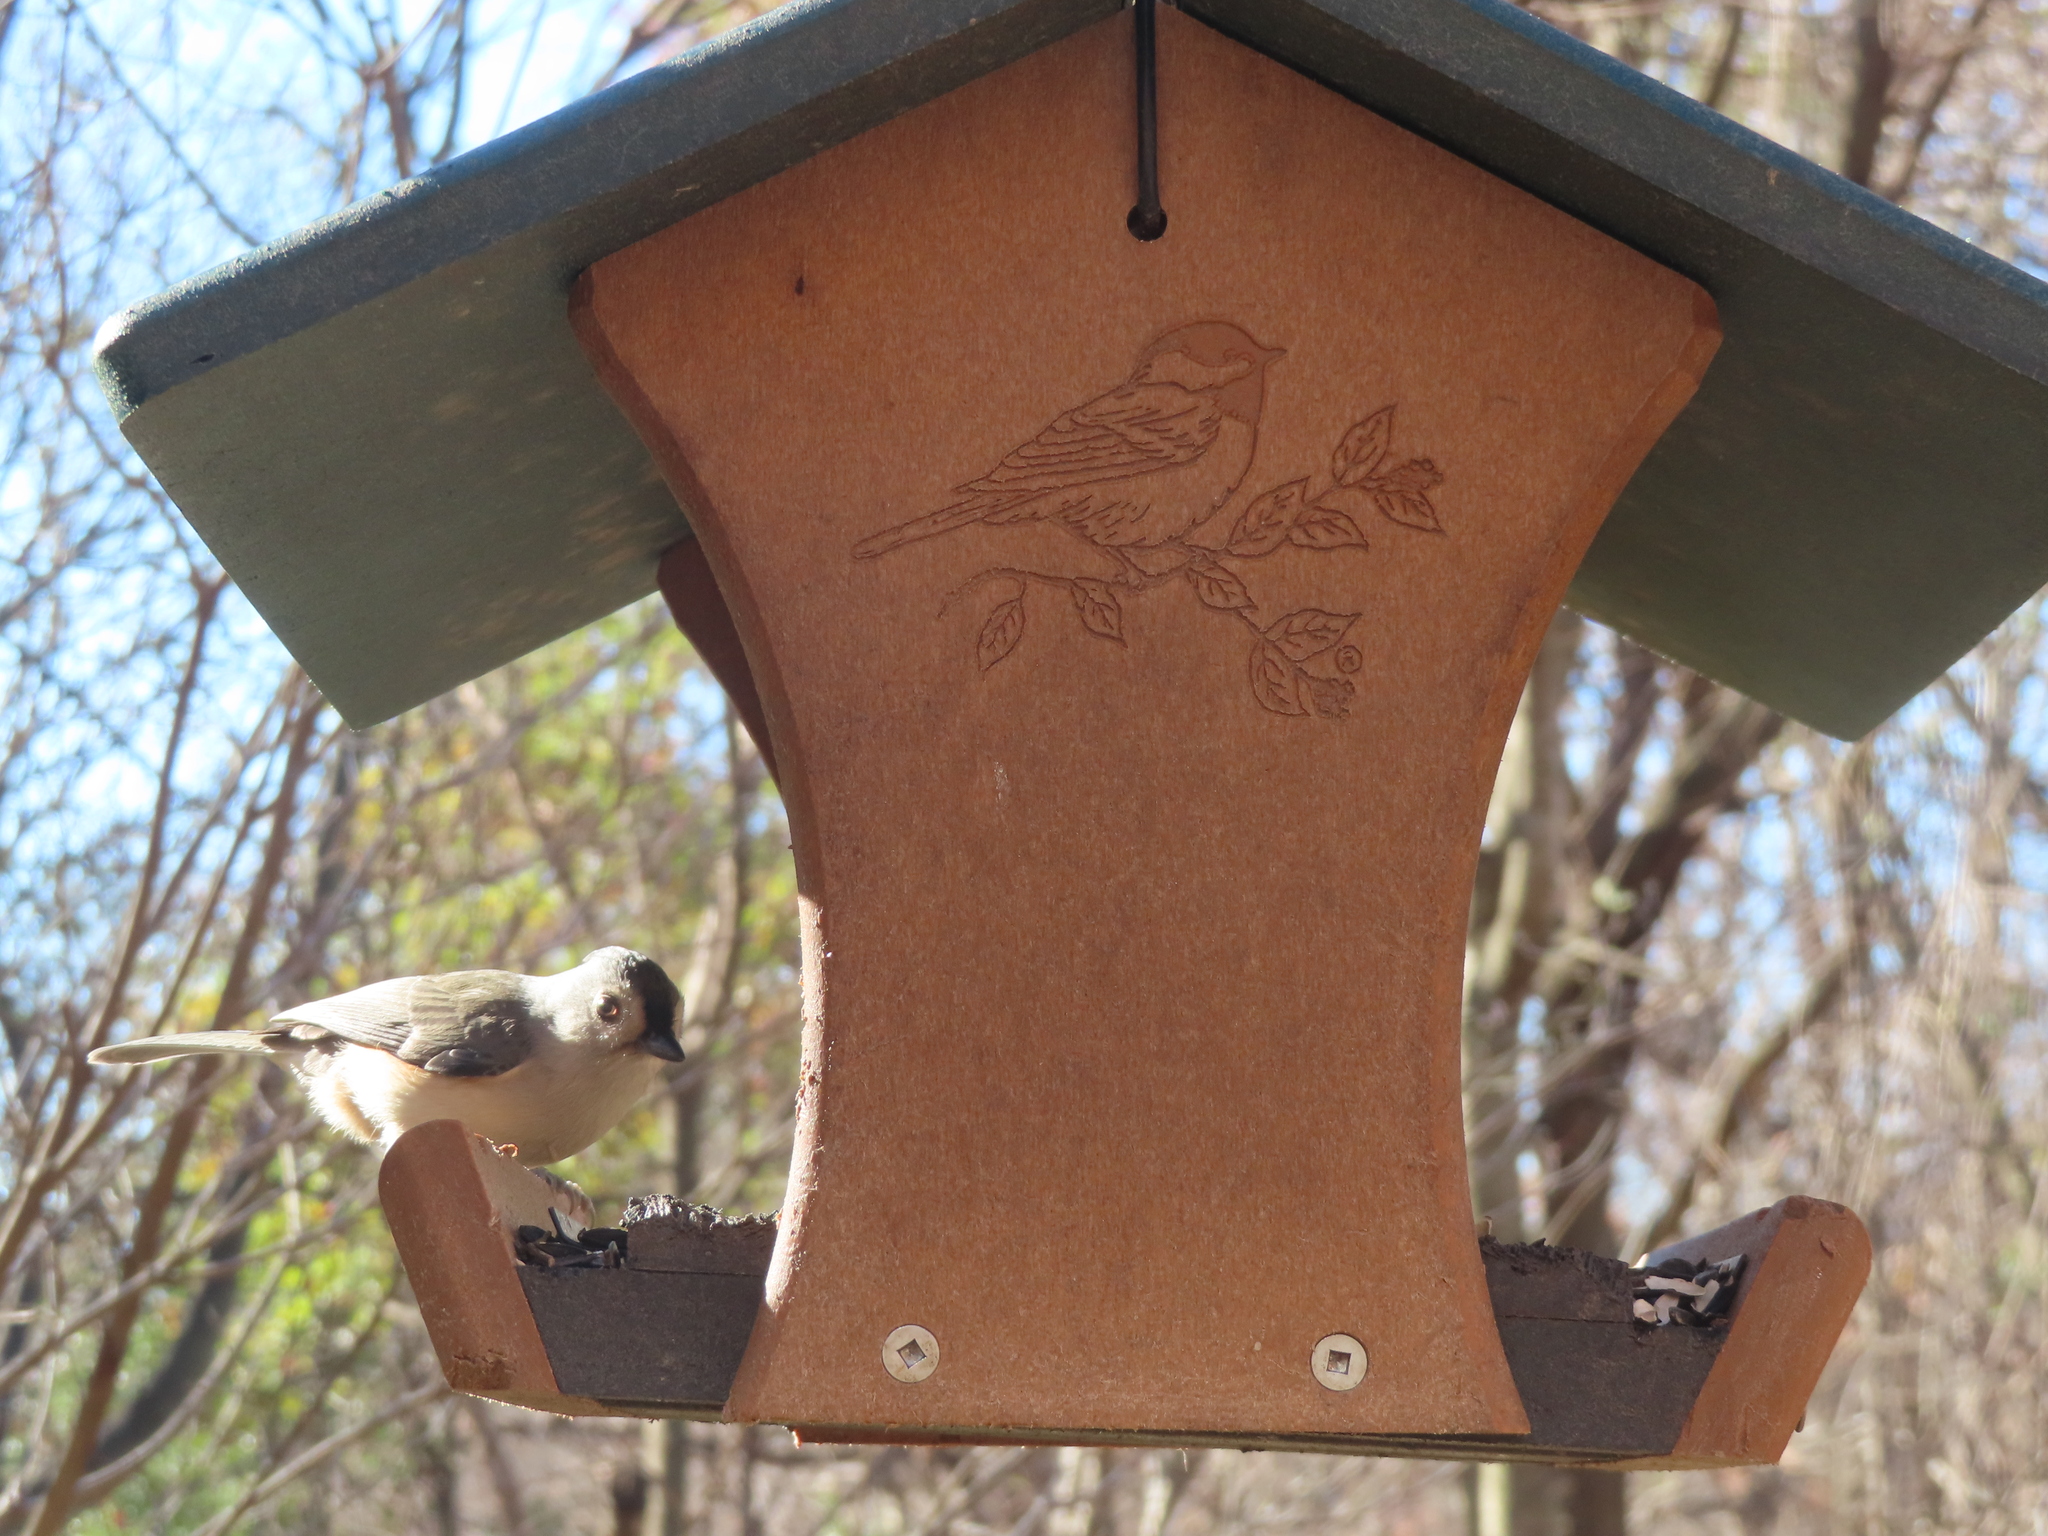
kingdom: Animalia
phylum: Chordata
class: Aves
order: Passeriformes
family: Paridae
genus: Baeolophus
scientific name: Baeolophus bicolor
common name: Tufted titmouse
